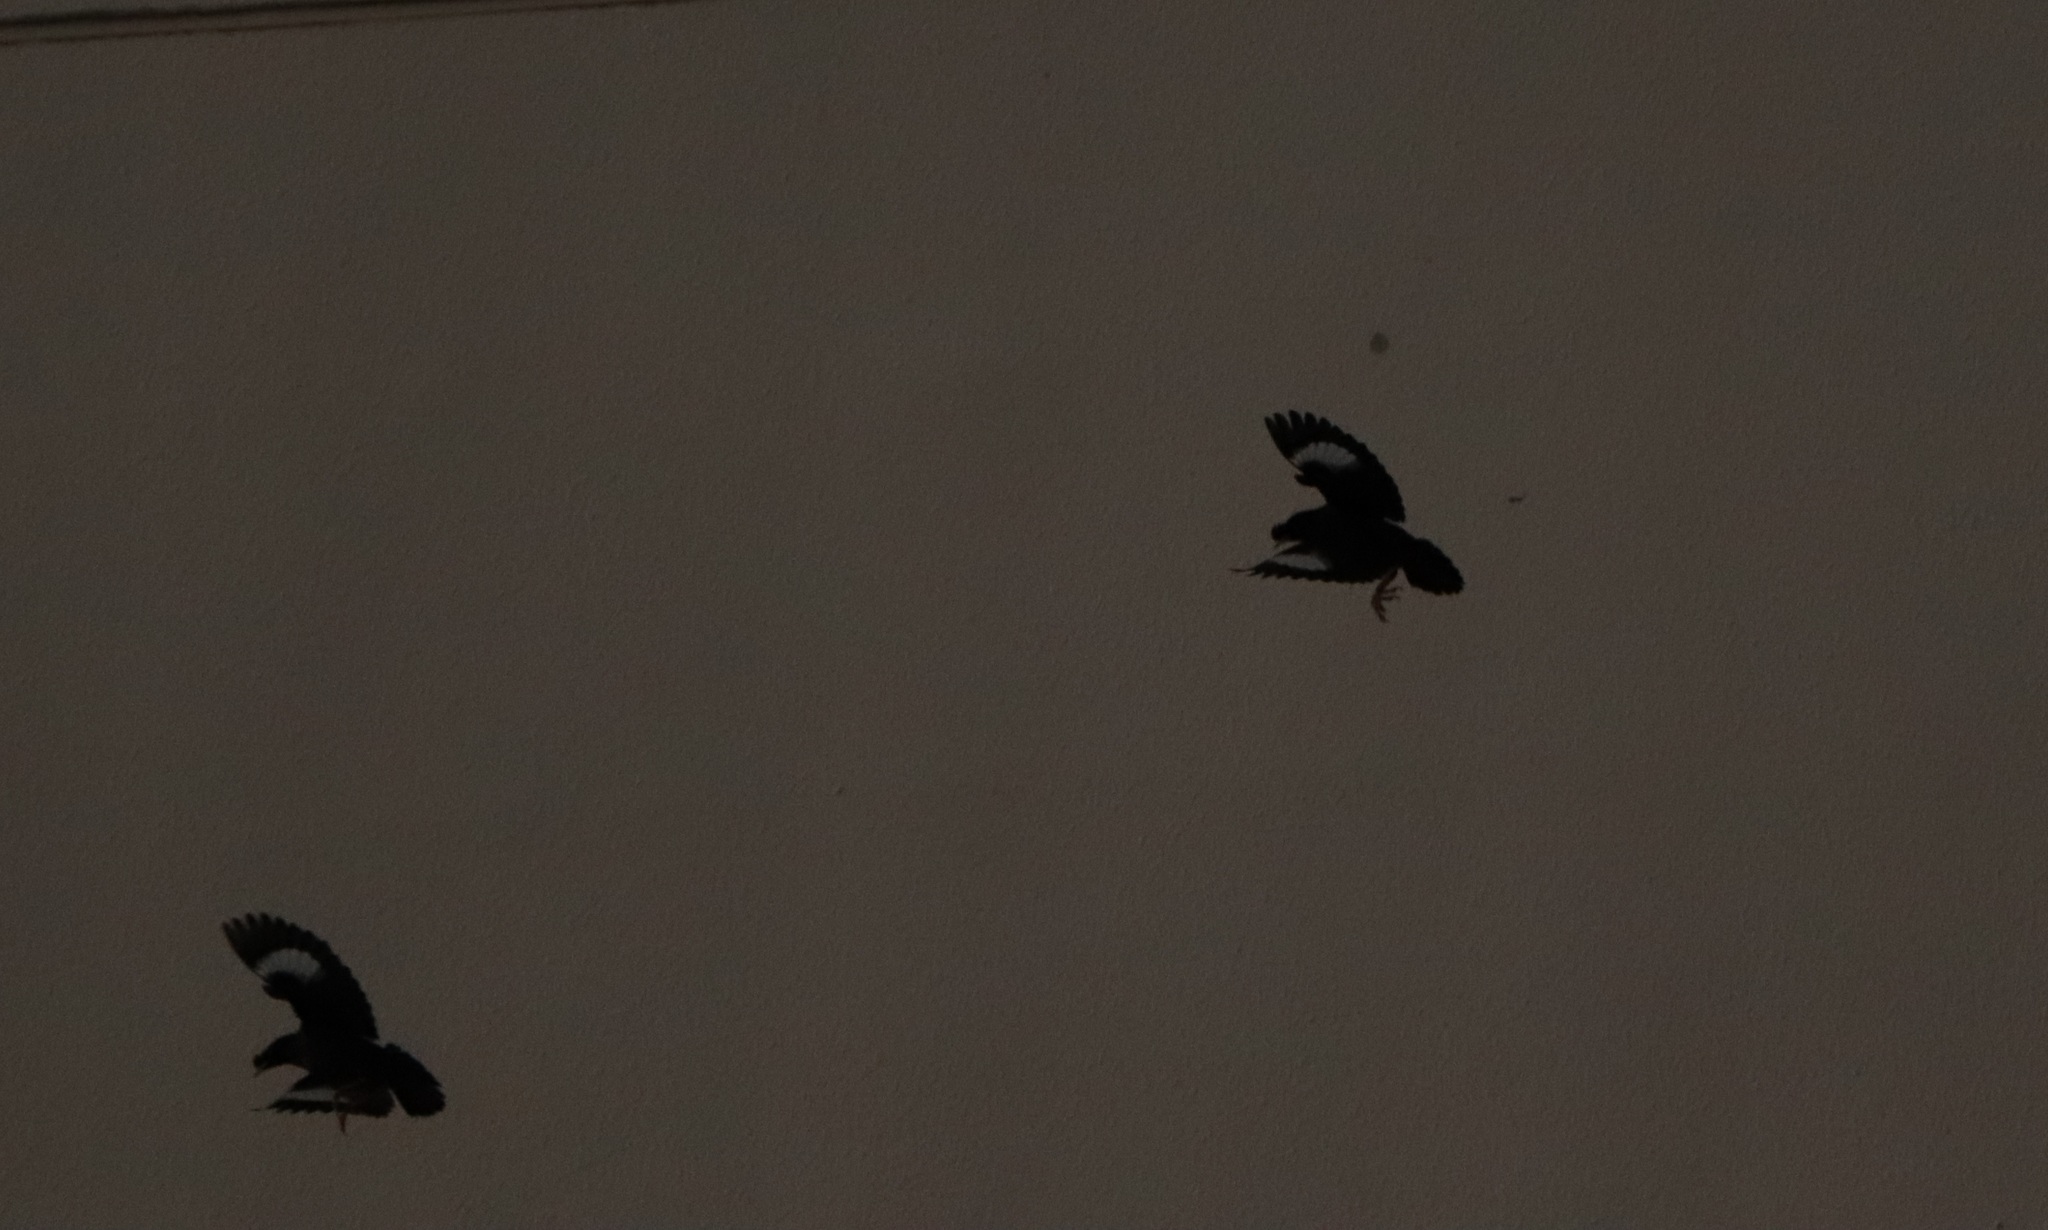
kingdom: Animalia
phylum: Chordata
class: Aves
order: Passeriformes
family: Sturnidae
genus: Acridotheres
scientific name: Acridotheres cristatellus
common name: Crested myna
